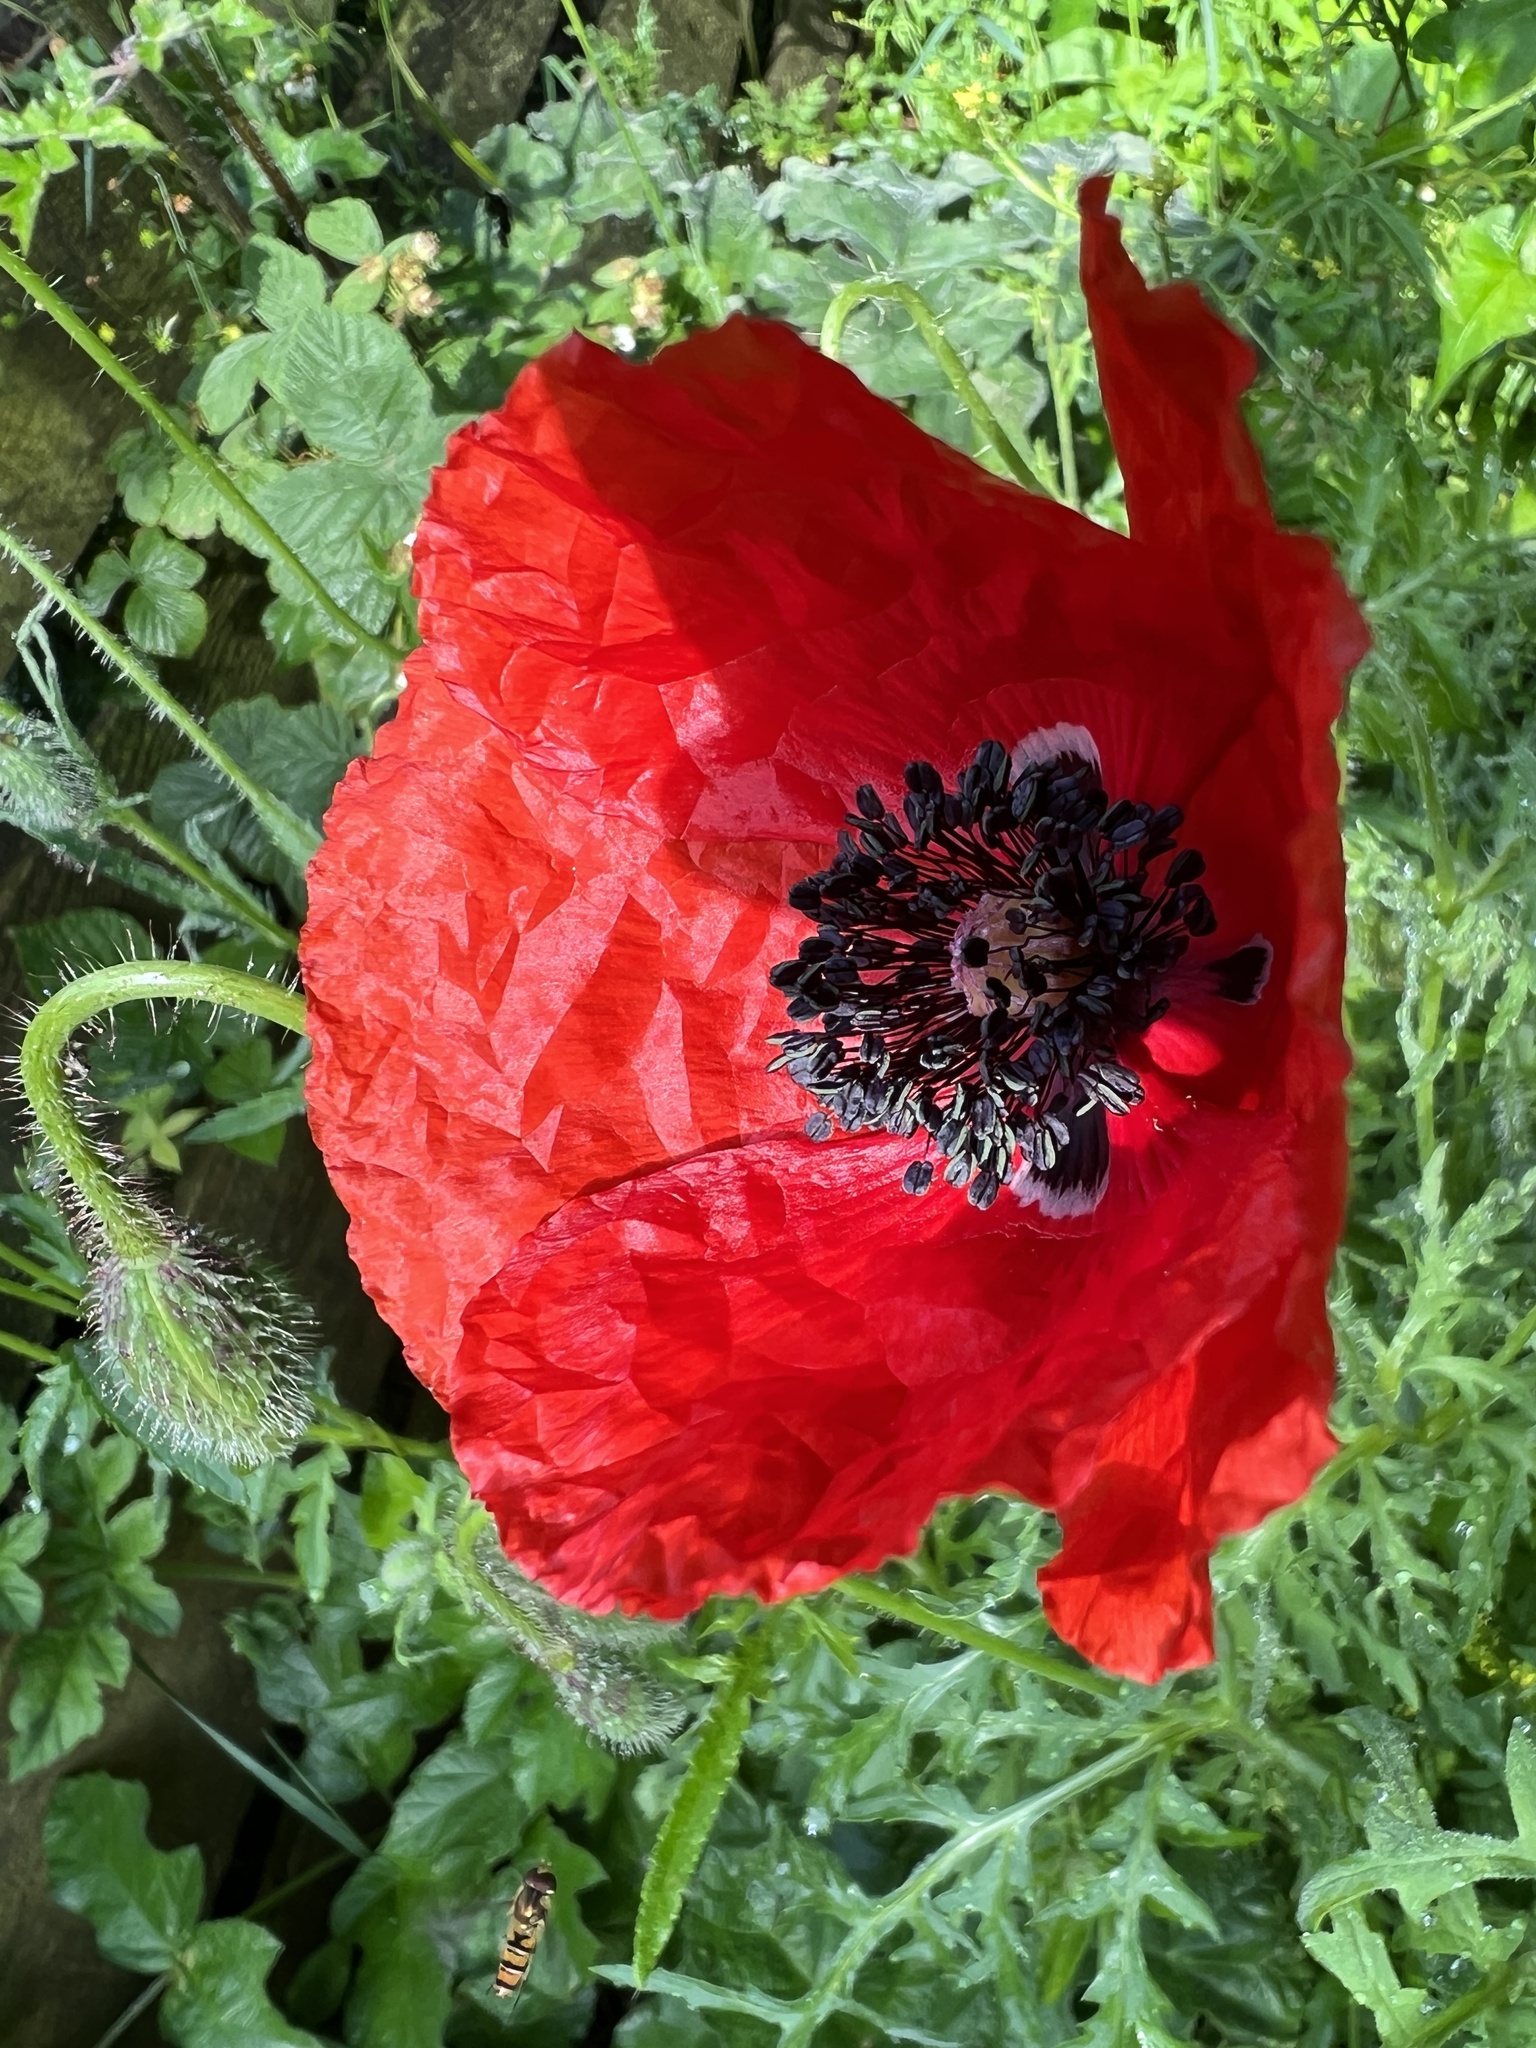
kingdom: Plantae
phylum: Tracheophyta
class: Magnoliopsida
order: Ranunculales
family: Papaveraceae
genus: Papaver
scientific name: Papaver rhoeas
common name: Corn poppy
